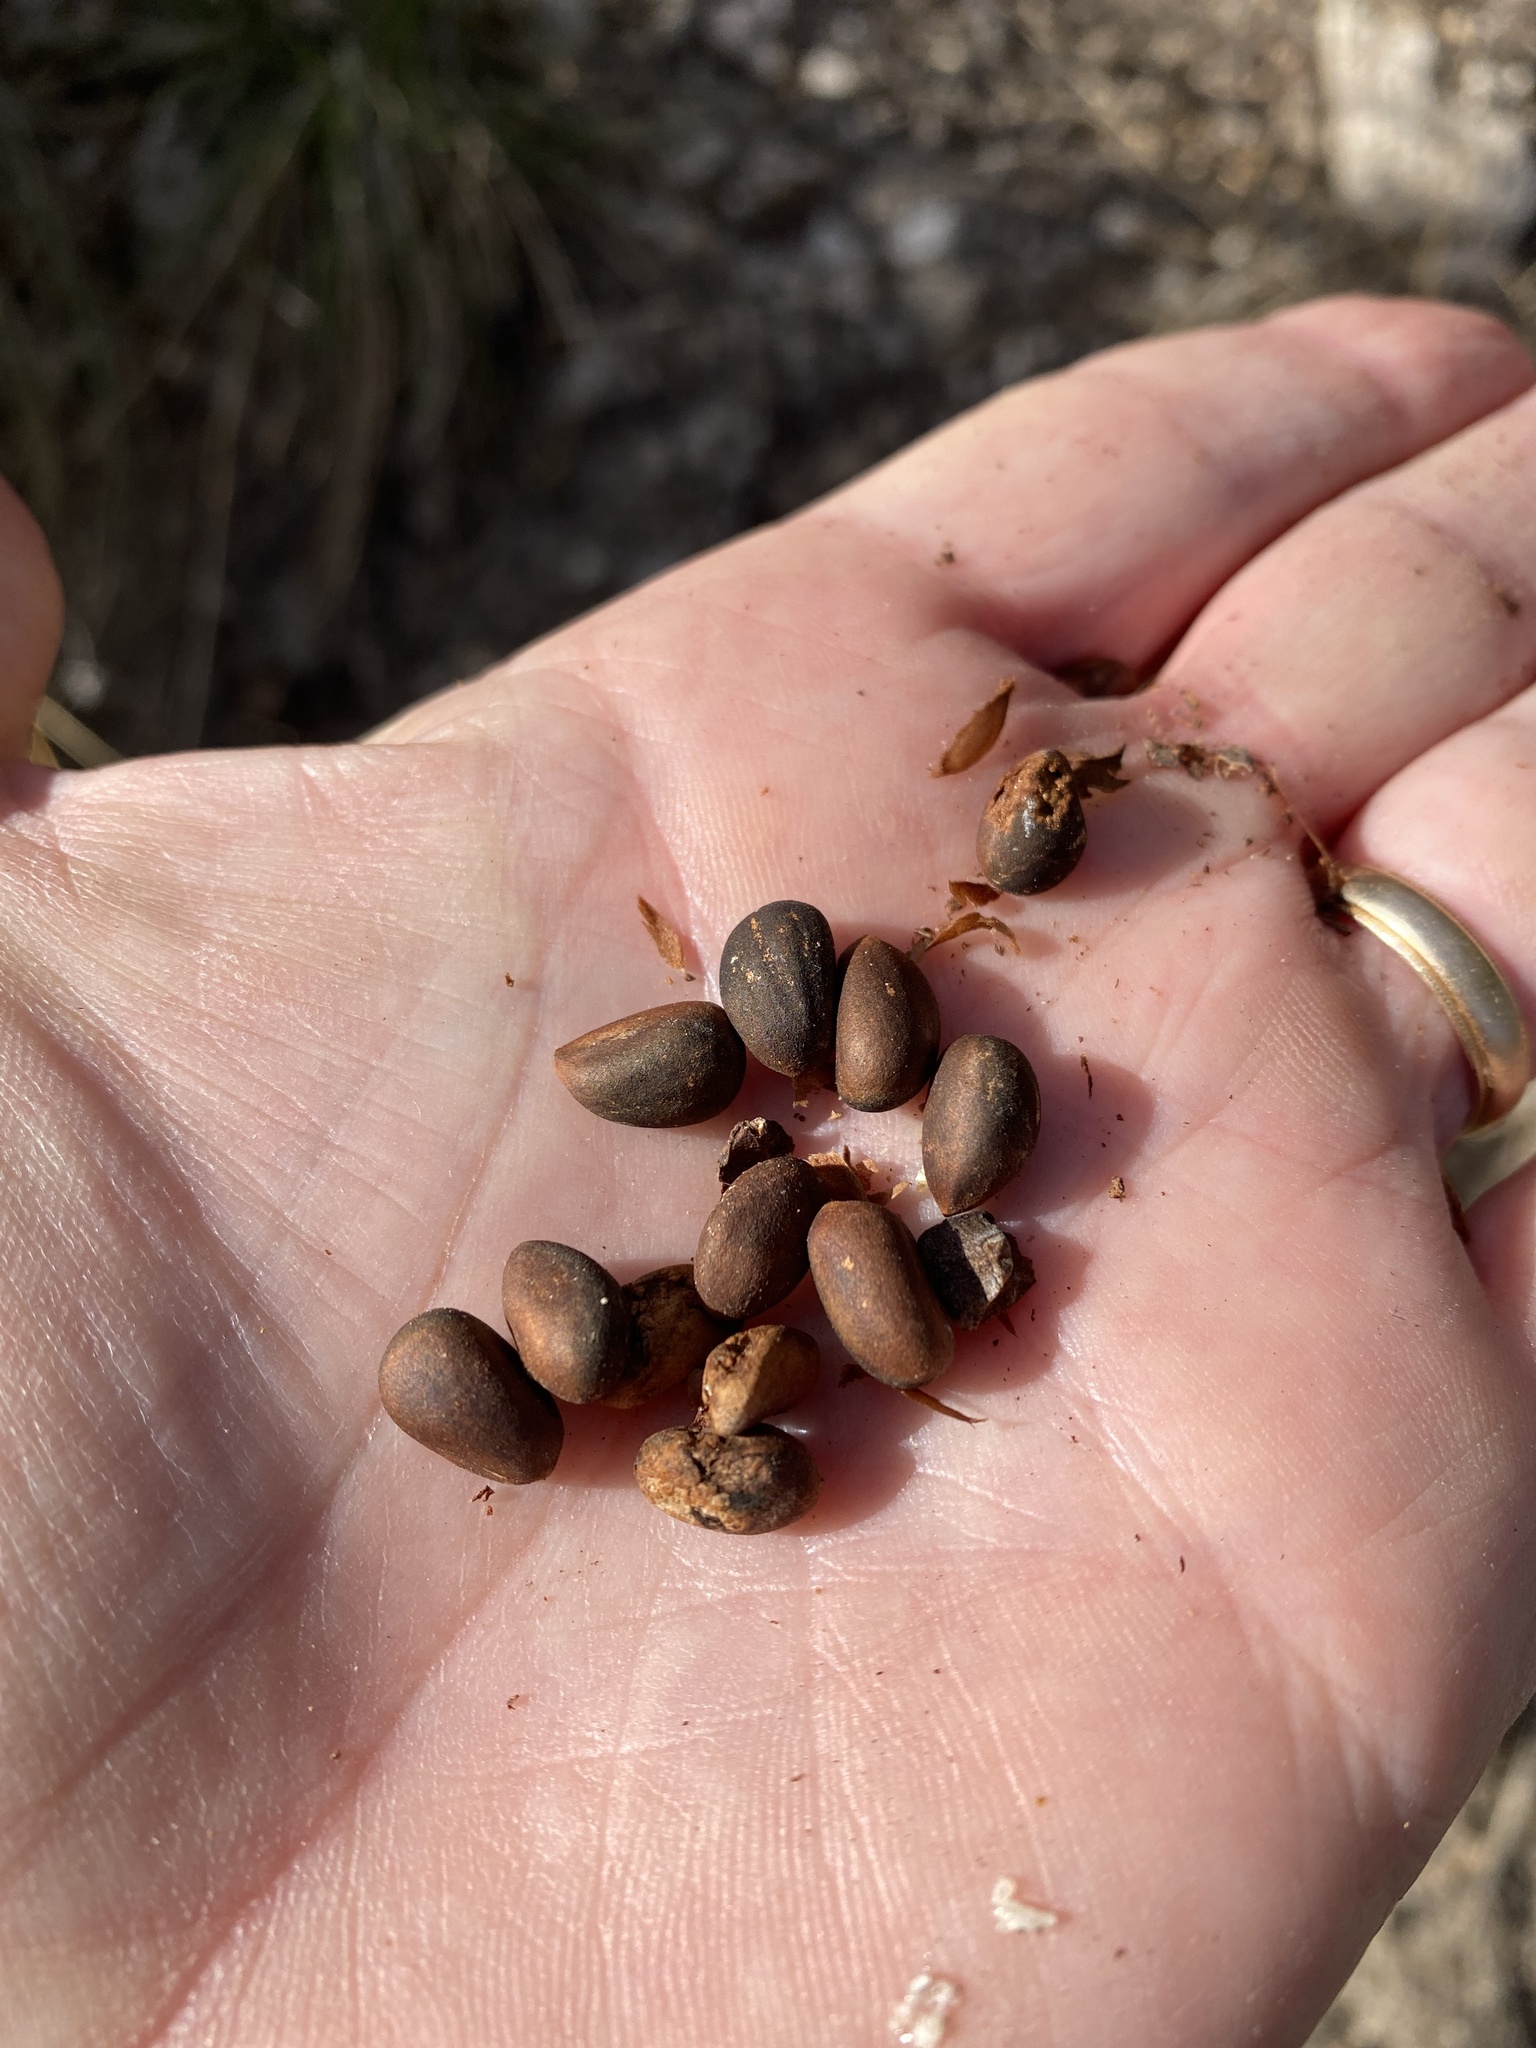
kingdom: Plantae
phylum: Tracheophyta
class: Pinopsida
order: Pinales
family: Pinaceae
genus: Pinus
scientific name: Pinus edulis
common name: Colorado pinyon
